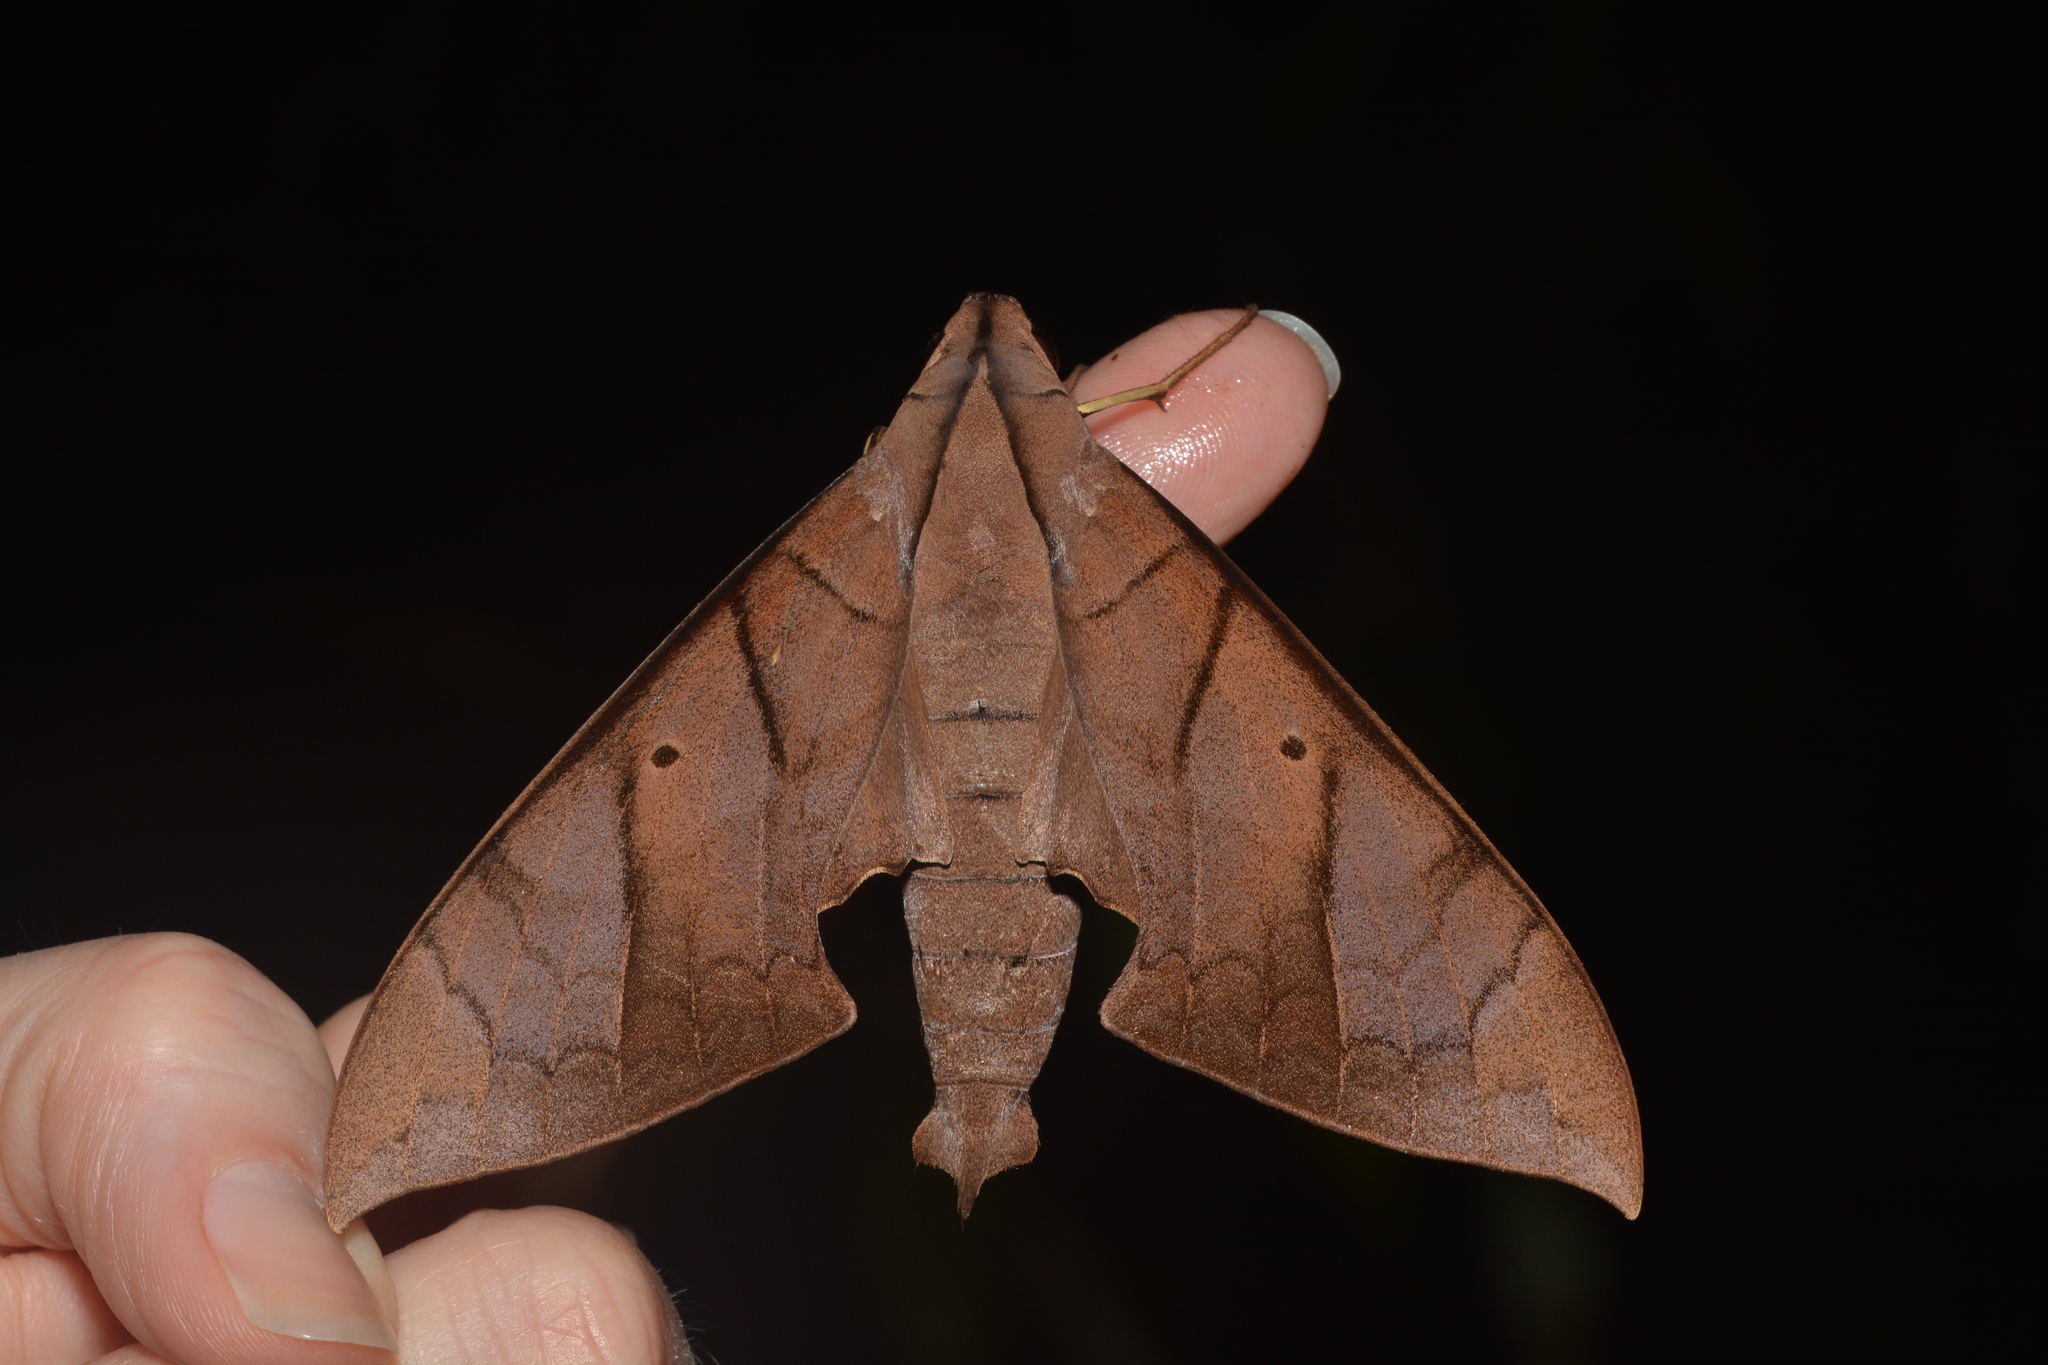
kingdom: Animalia
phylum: Arthropoda
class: Insecta
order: Lepidoptera
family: Sphingidae
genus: Pachylia
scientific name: Pachylia darceta
